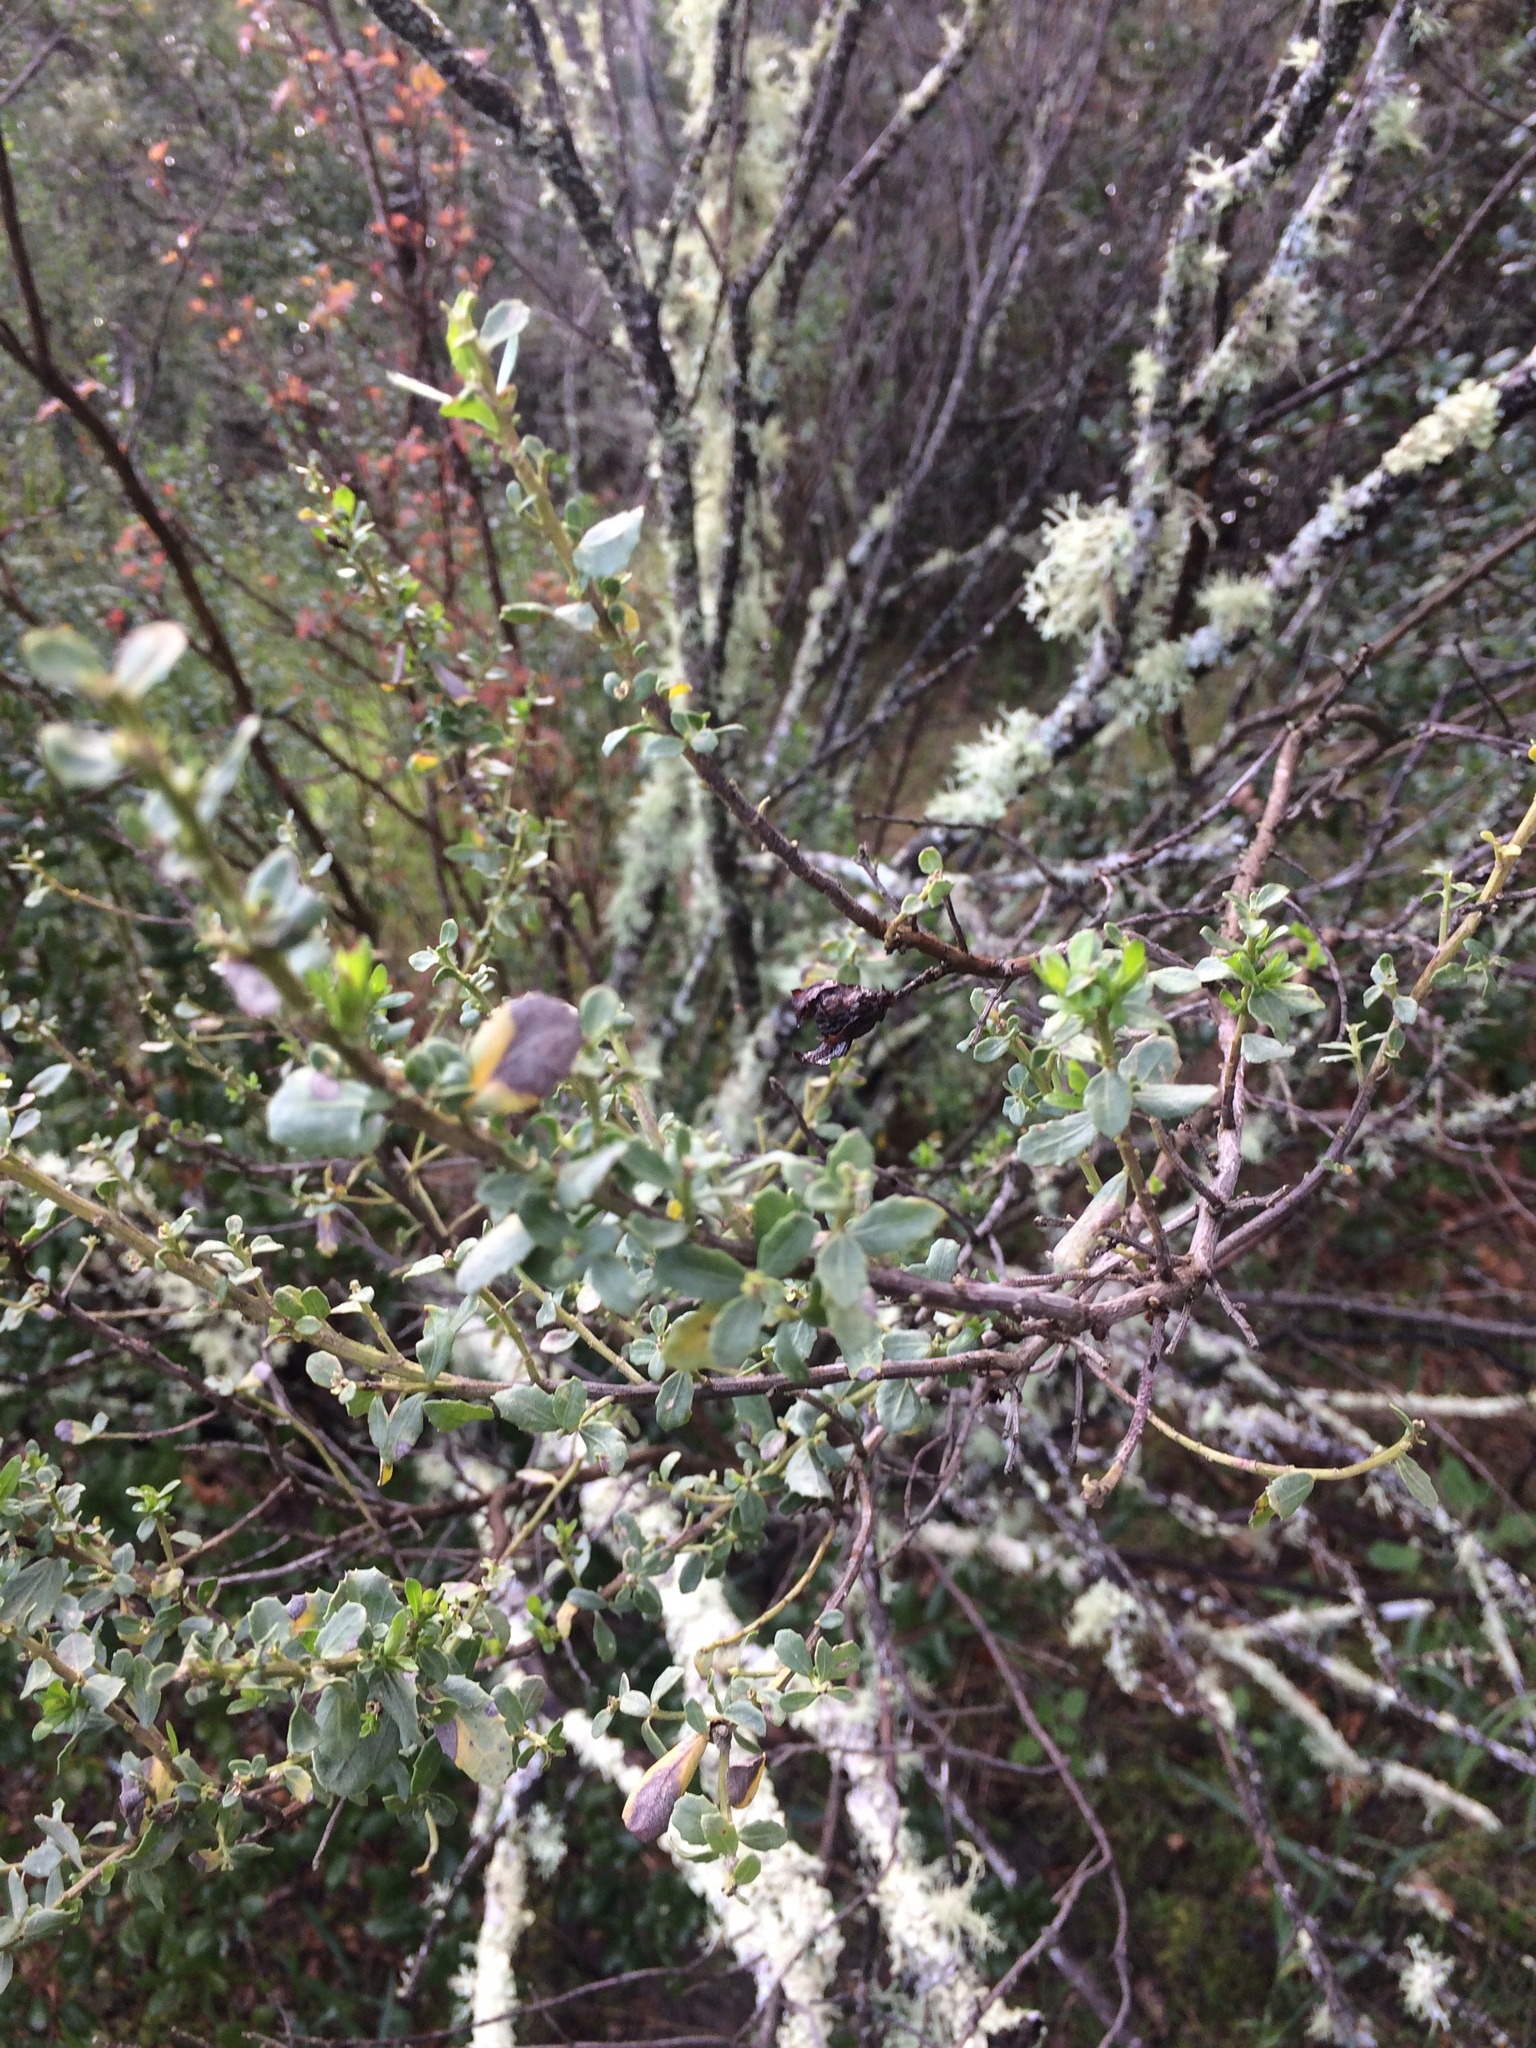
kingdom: Plantae
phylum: Tracheophyta
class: Magnoliopsida
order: Asterales
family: Asteraceae
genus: Baccharis
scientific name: Baccharis pilularis
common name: Coyotebrush
